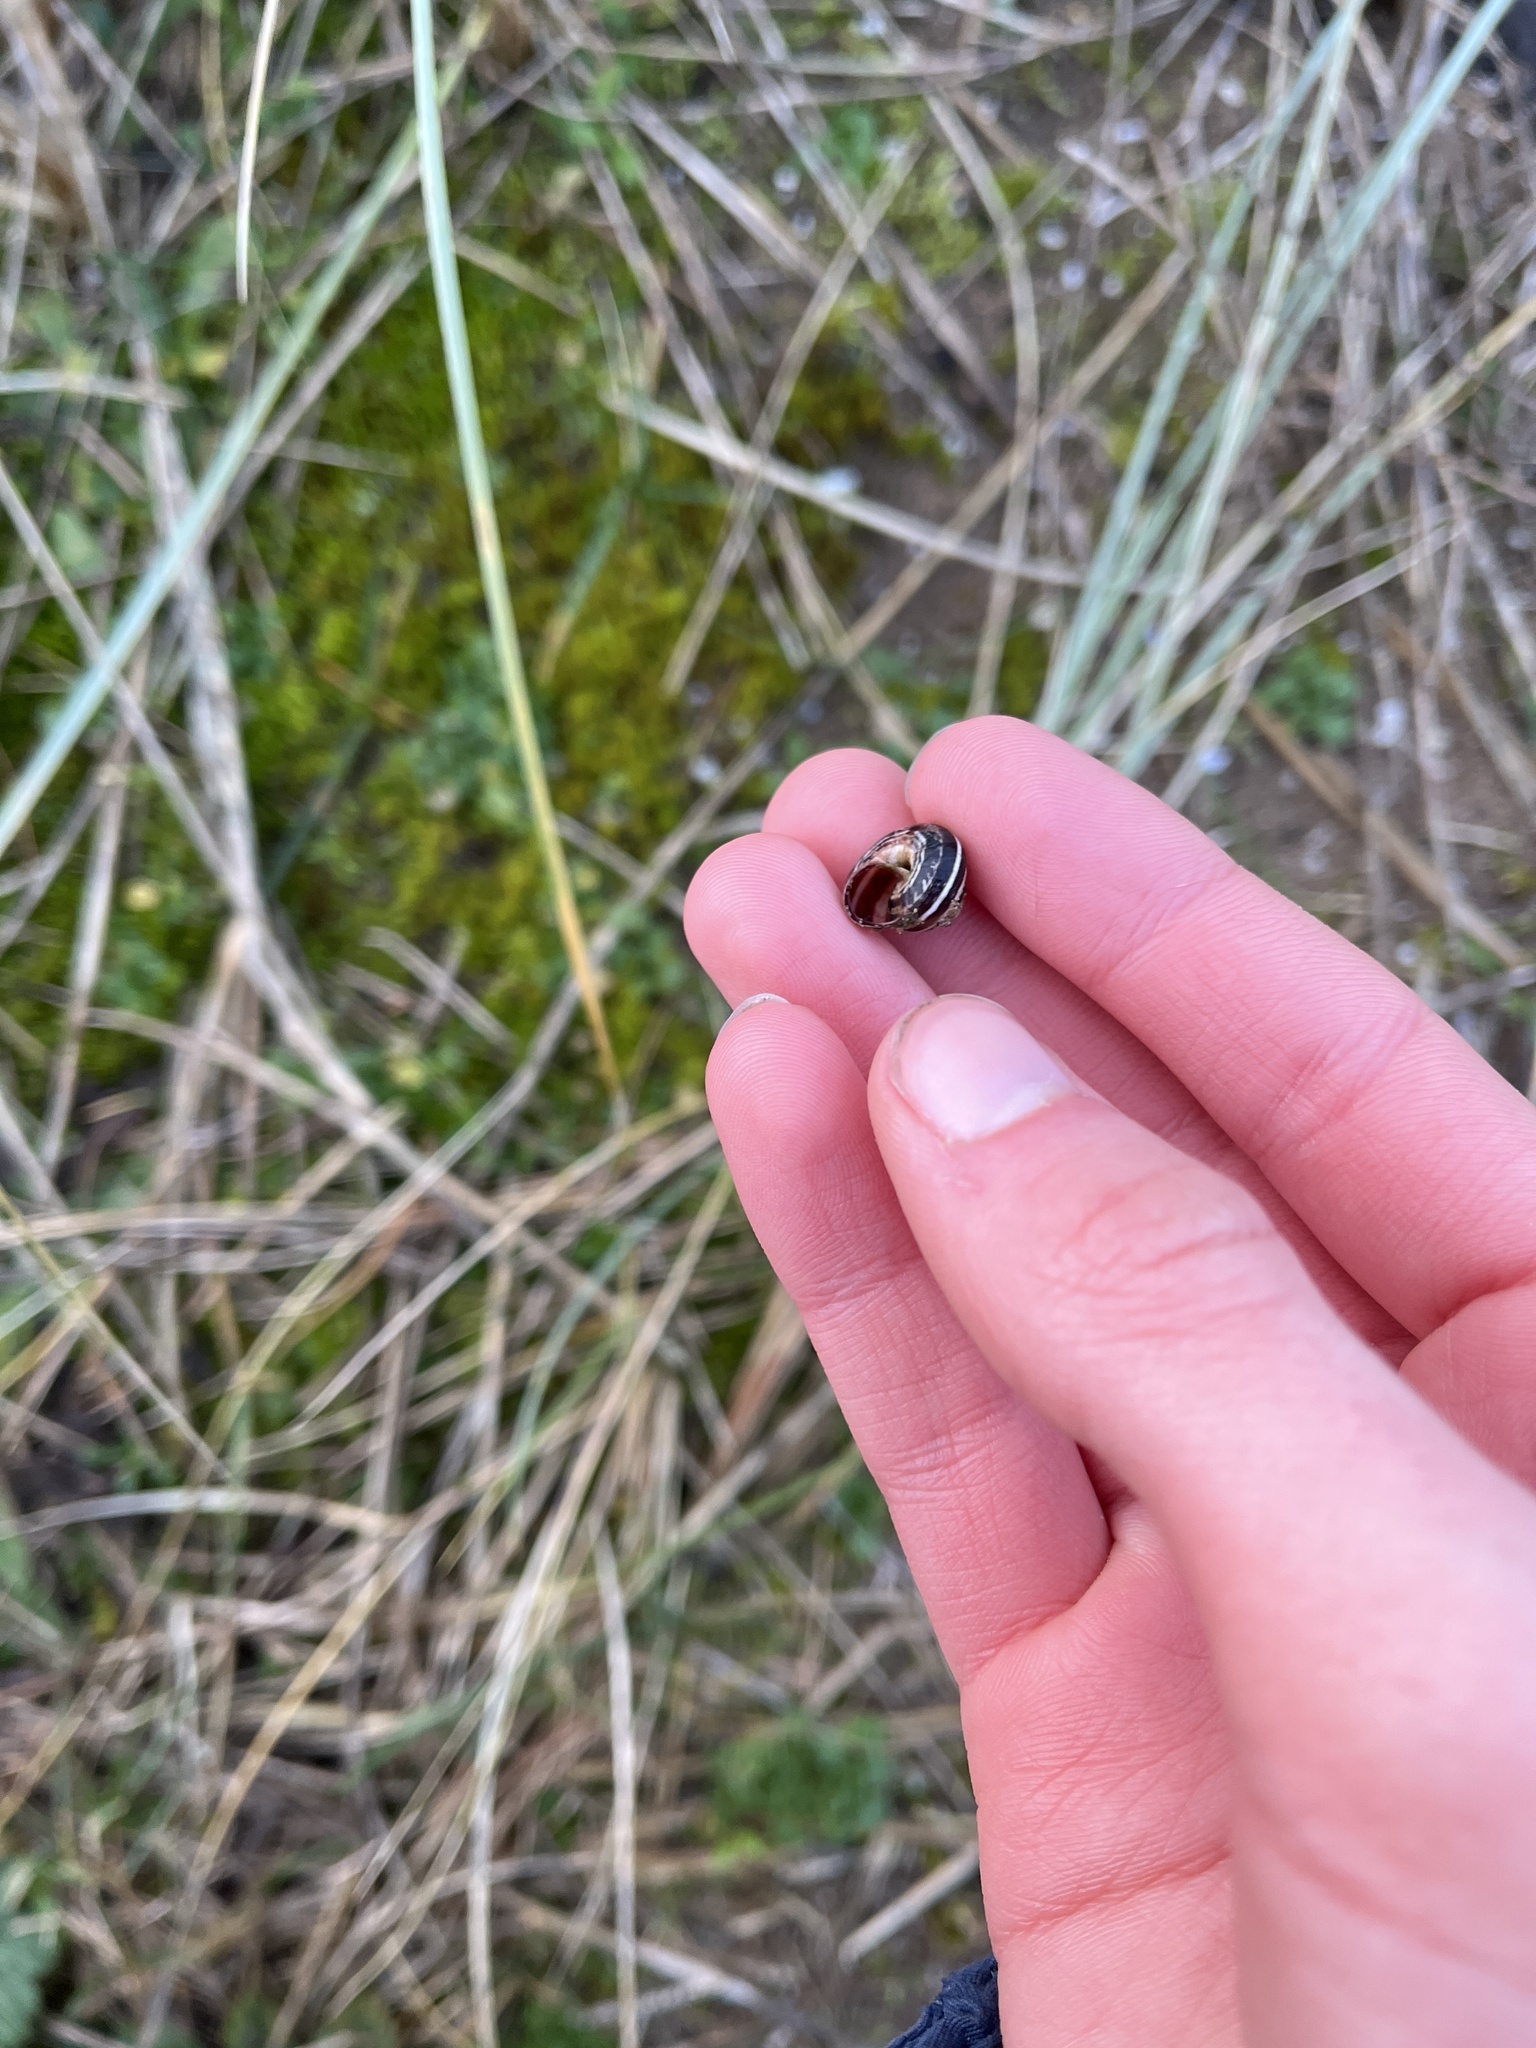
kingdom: Animalia
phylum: Mollusca
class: Gastropoda
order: Stylommatophora
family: Geomitridae
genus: Cernuella
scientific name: Cernuella virgata
